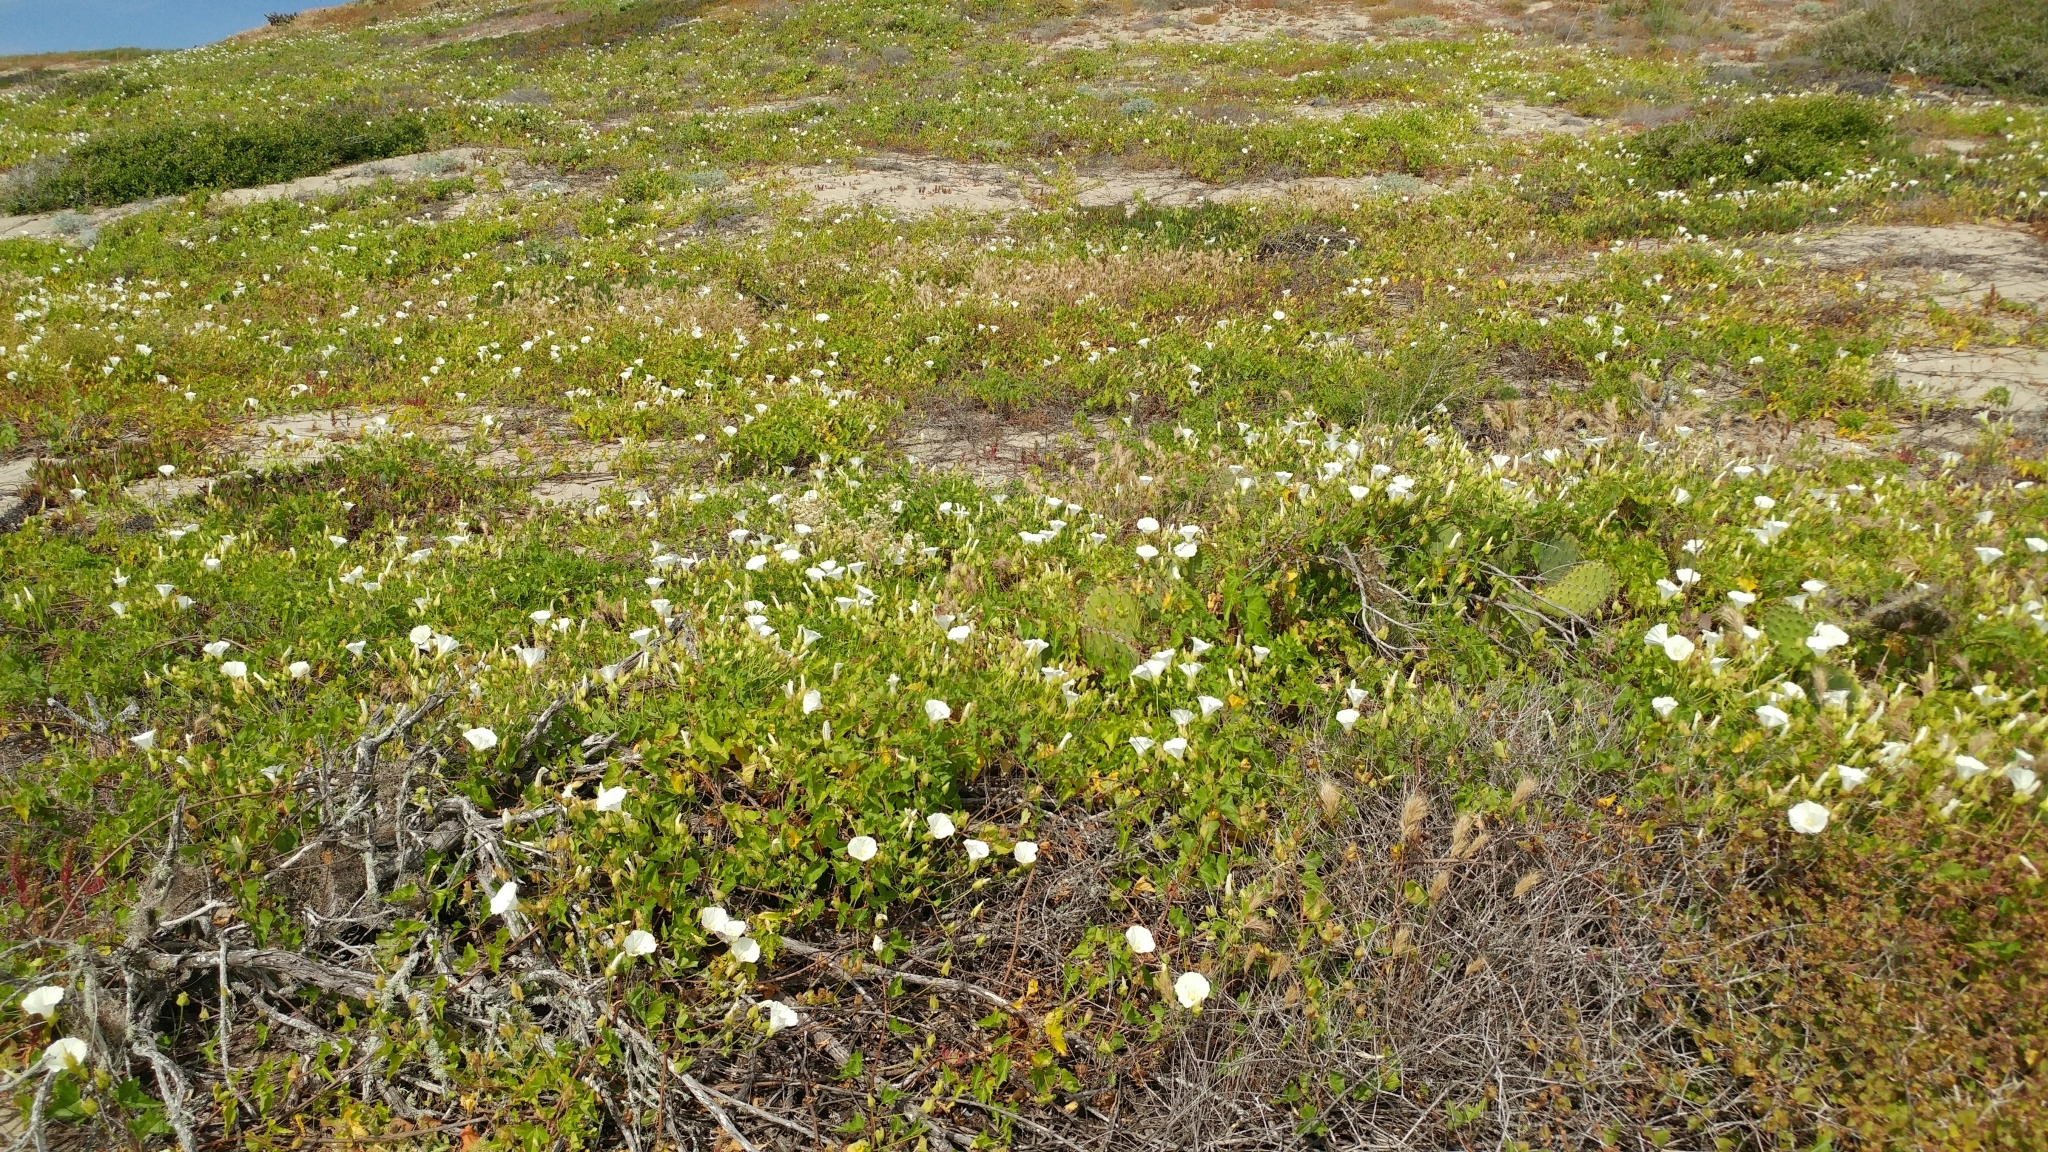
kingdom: Plantae
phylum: Tracheophyta
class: Magnoliopsida
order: Solanales
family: Convolvulaceae
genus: Calystegia
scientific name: Calystegia macrostegia
